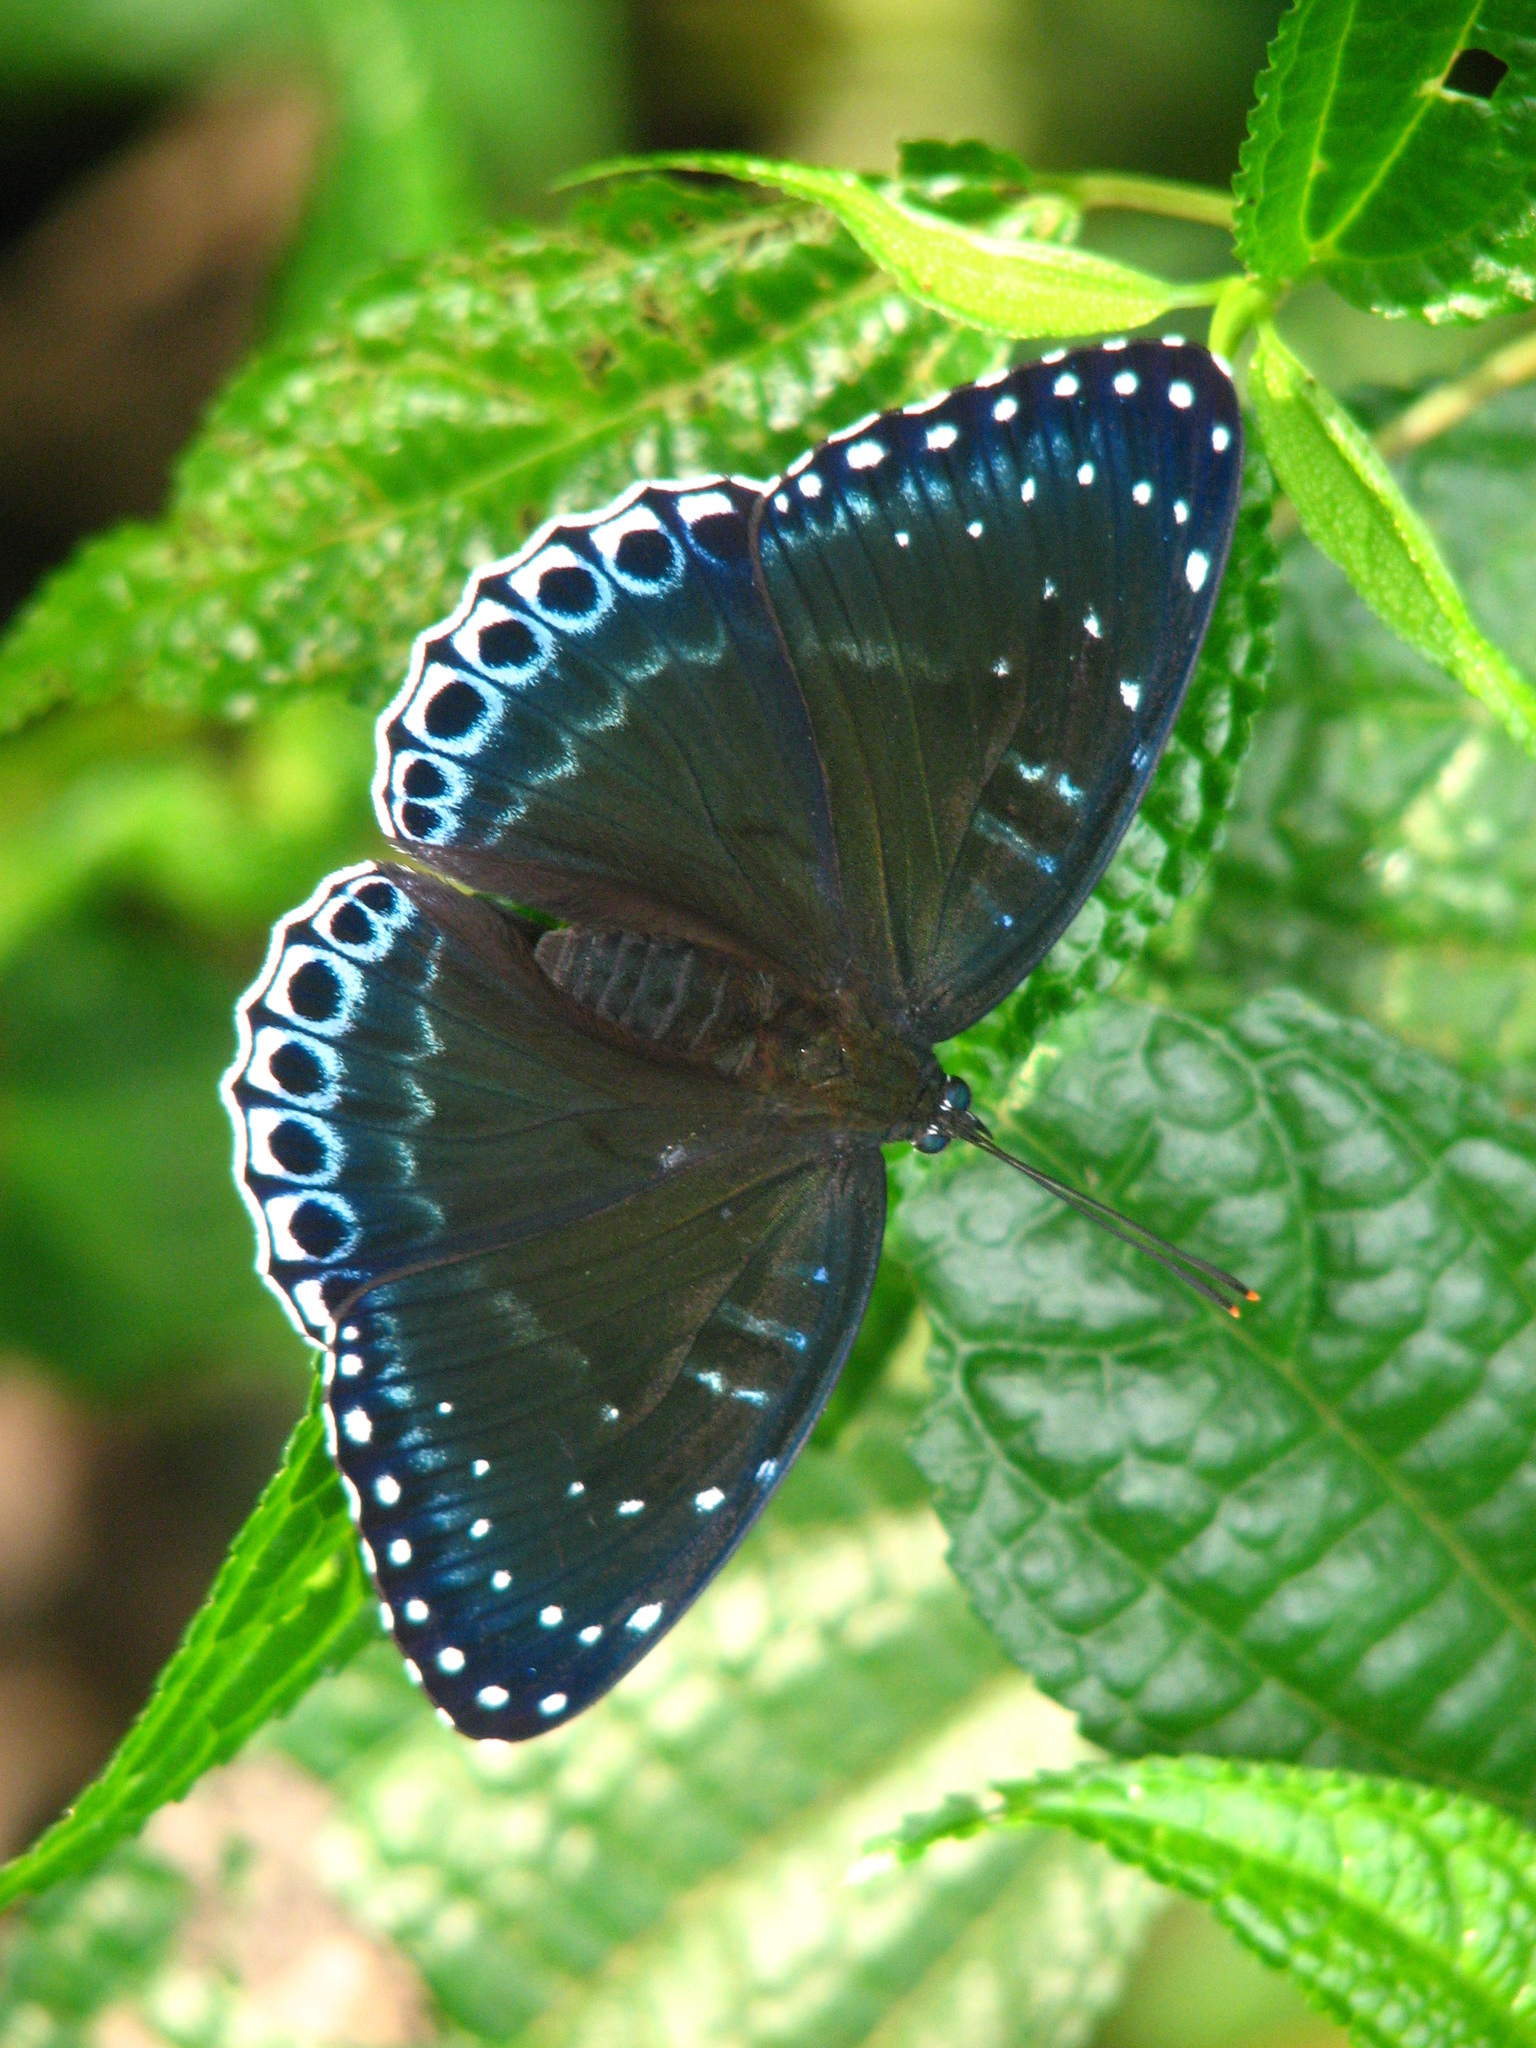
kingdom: Animalia
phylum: Arthropoda
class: Insecta
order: Lepidoptera
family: Nymphalidae
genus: Stibochiona
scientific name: Stibochiona nicea
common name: Popinjay
